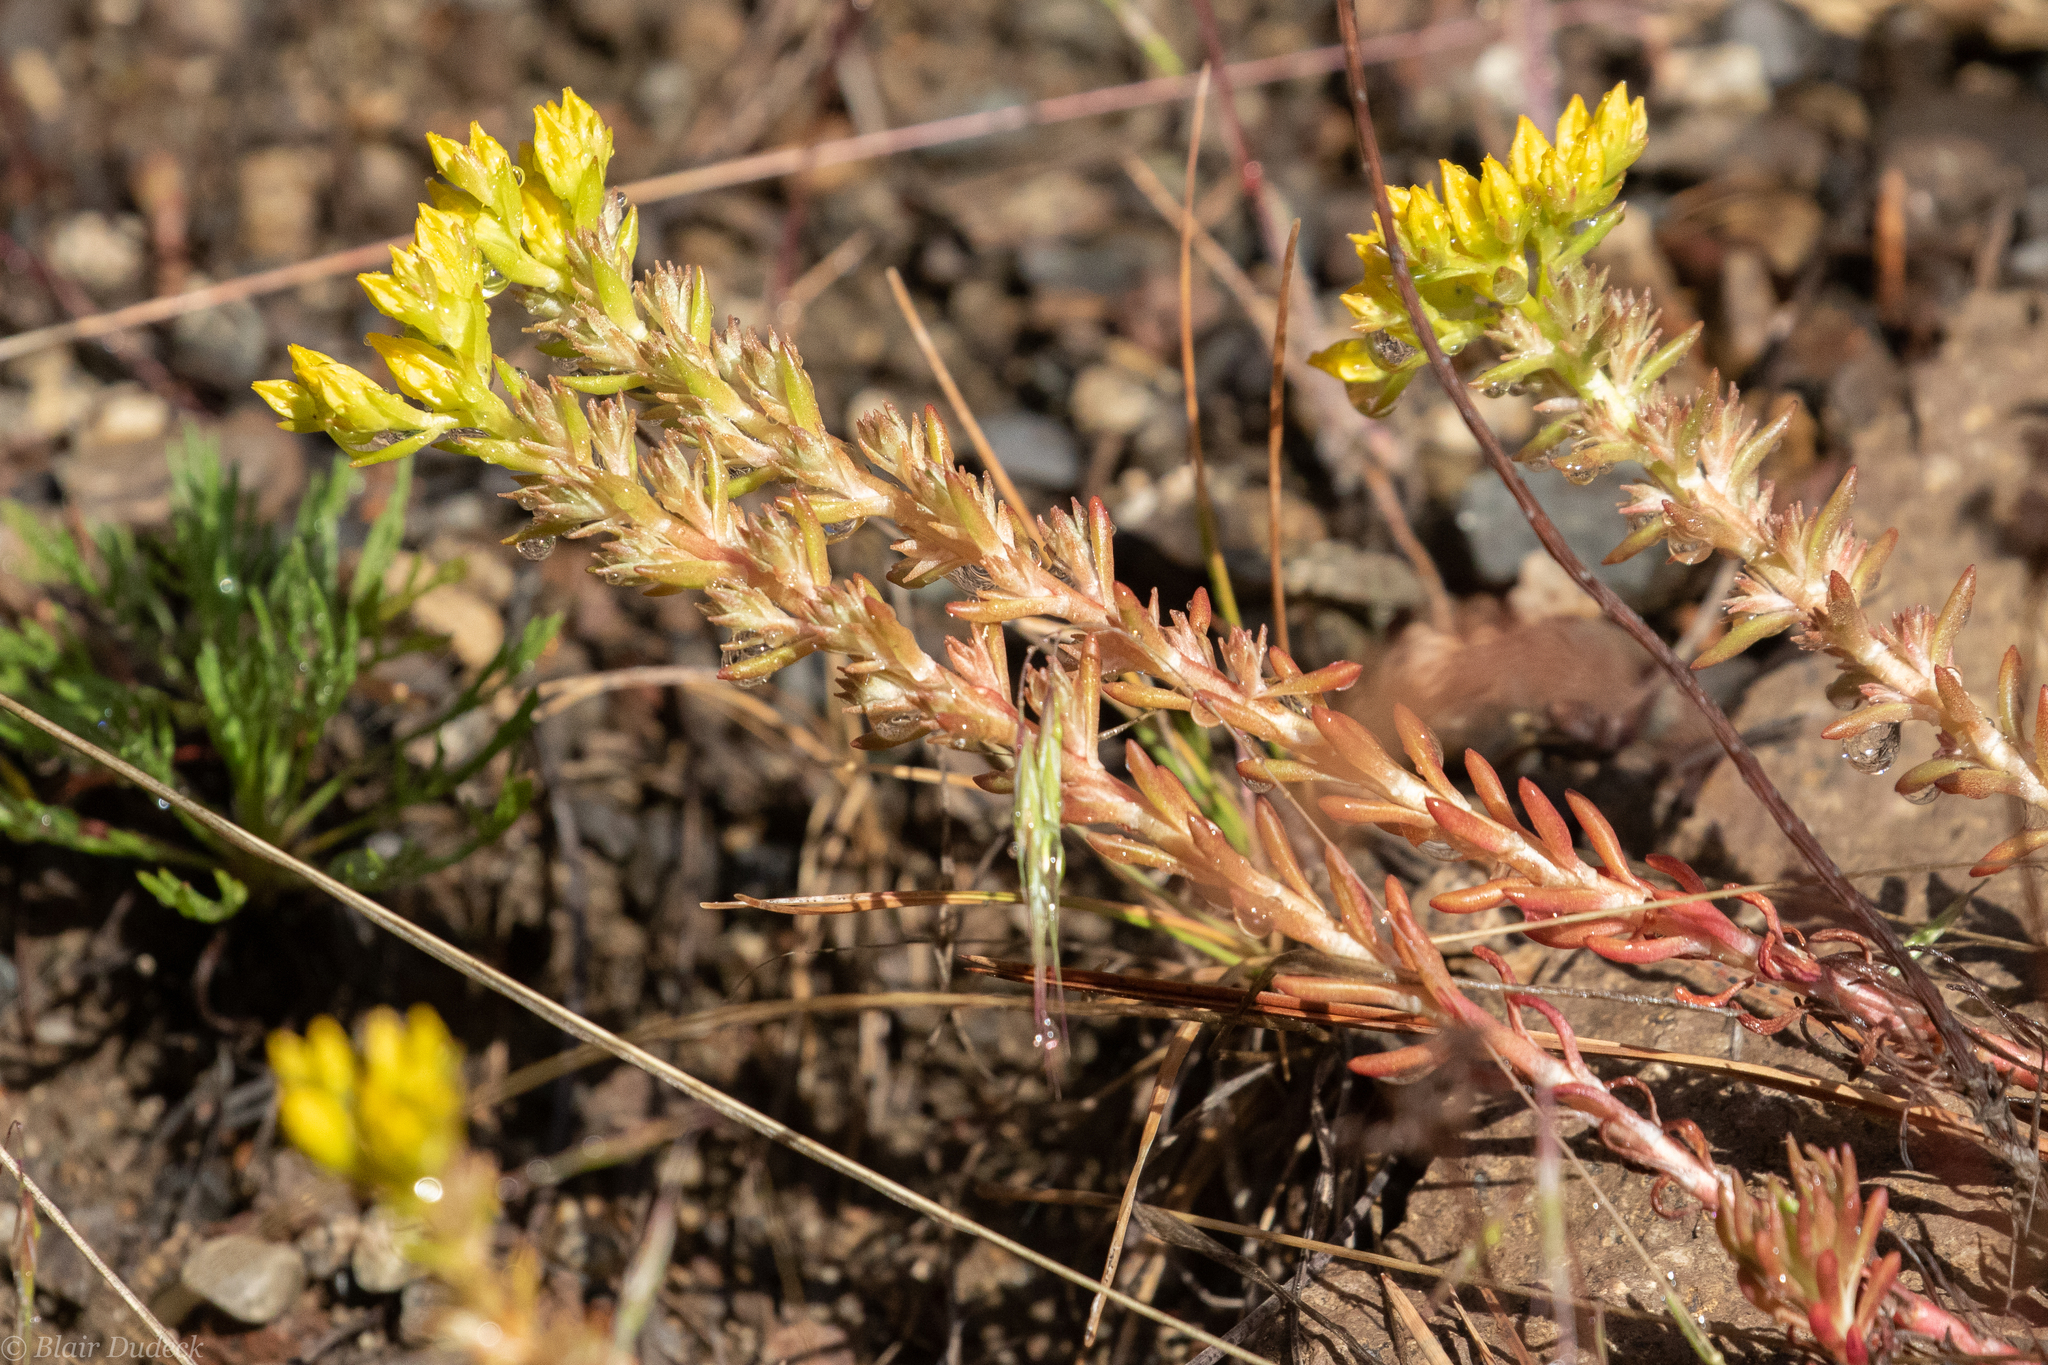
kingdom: Plantae
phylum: Tracheophyta
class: Magnoliopsida
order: Saxifragales
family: Crassulaceae
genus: Sedum
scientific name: Sedum lanceolatum
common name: Common stonecrop
